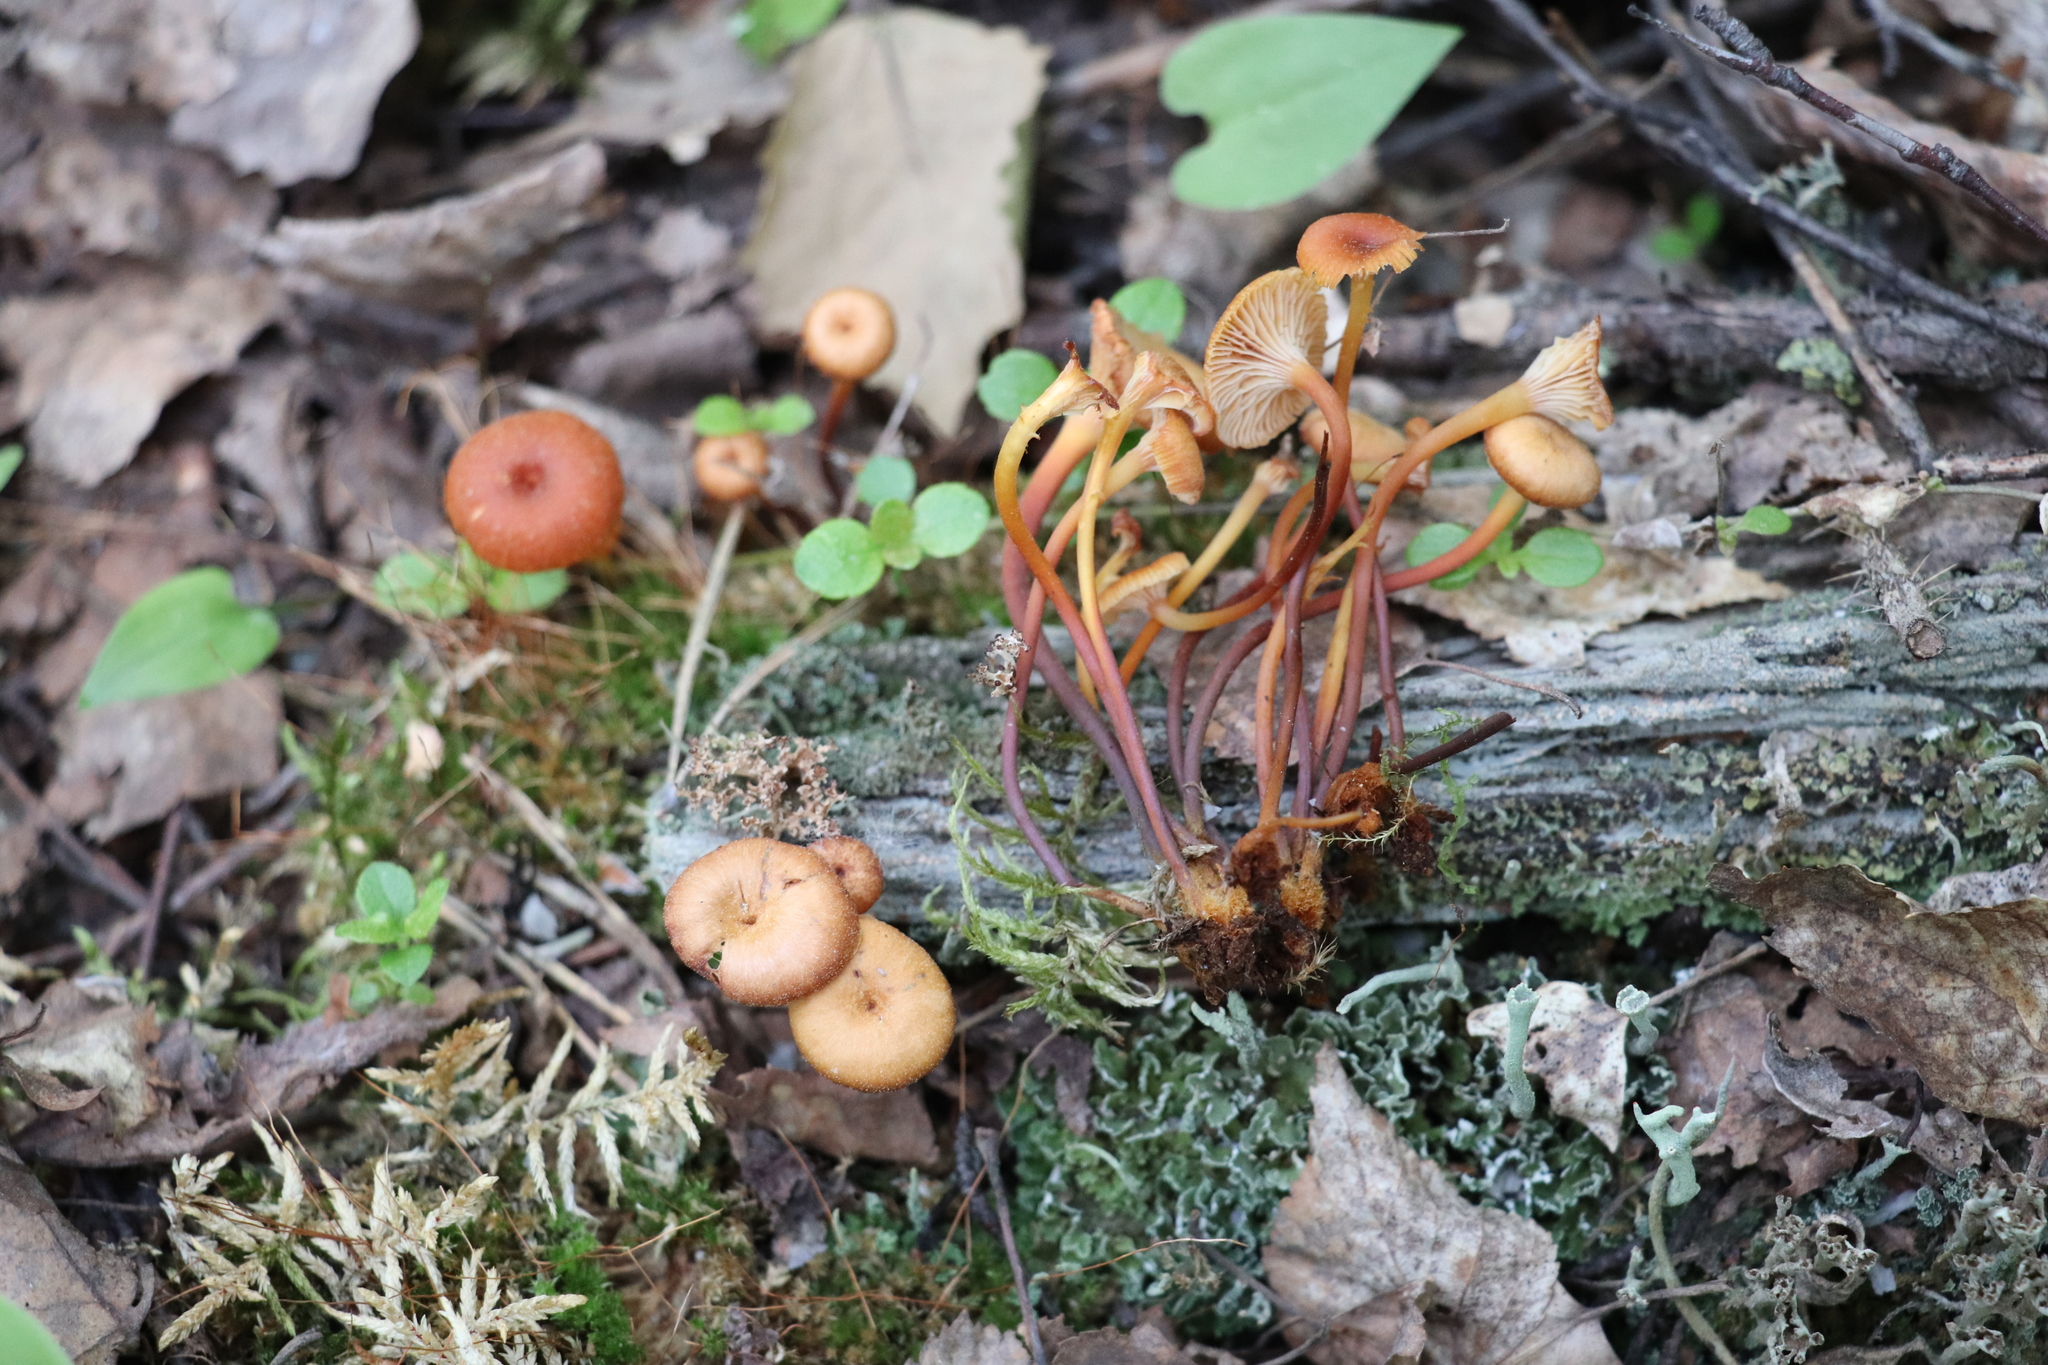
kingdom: Fungi
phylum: Basidiomycota
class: Agaricomycetes
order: Agaricales
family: Mycenaceae
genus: Xeromphalina
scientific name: Xeromphalina campanella
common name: Pinewood gingertail
